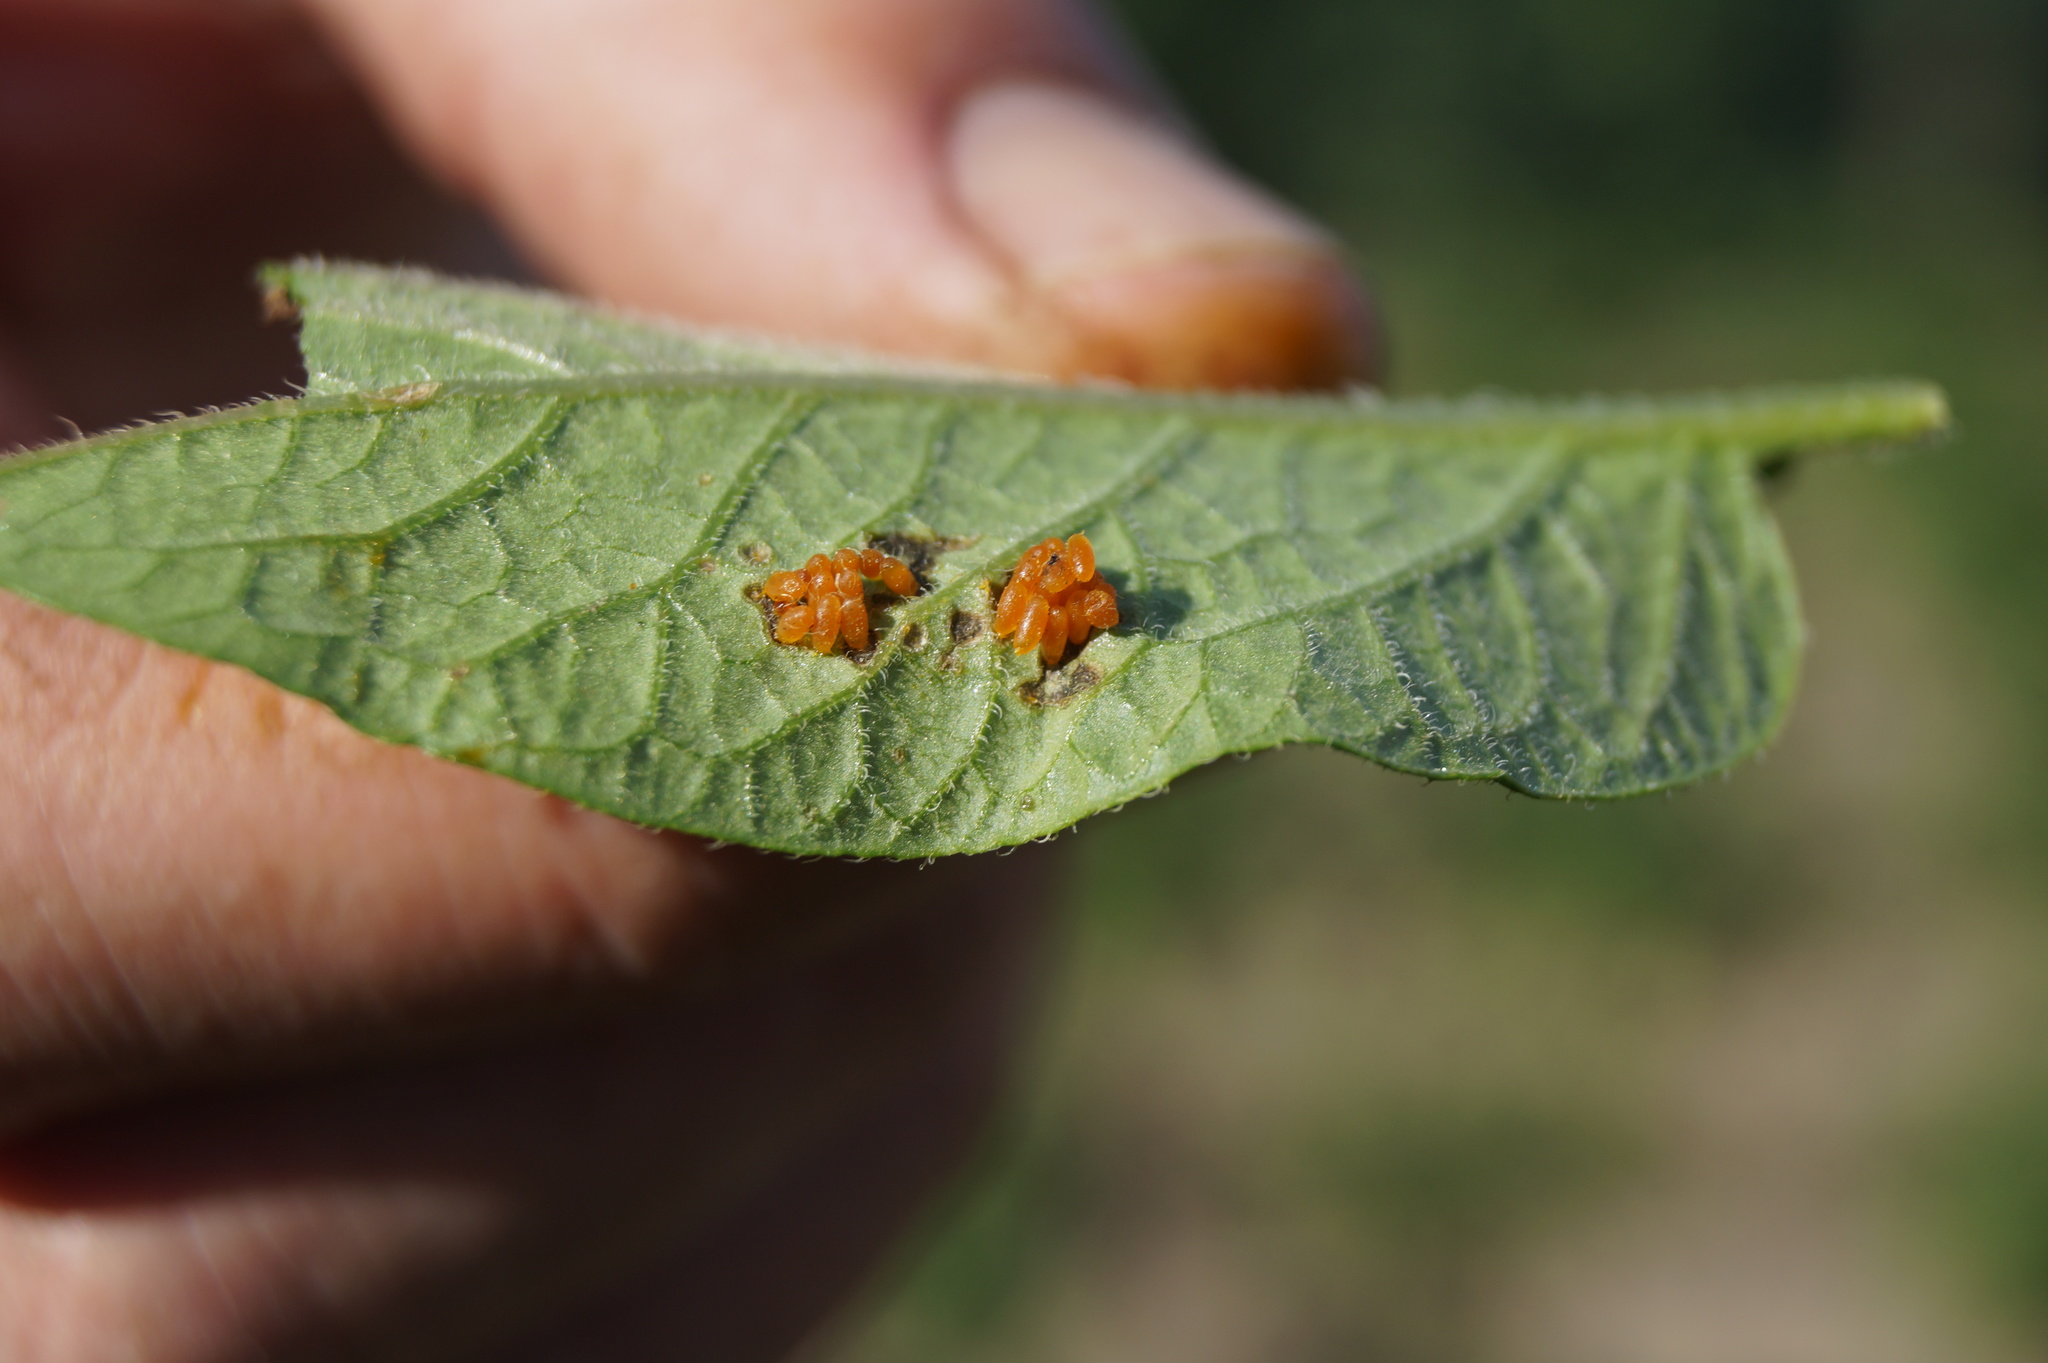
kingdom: Animalia
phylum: Arthropoda
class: Insecta
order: Coleoptera
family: Chrysomelidae
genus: Leptinotarsa
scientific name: Leptinotarsa decemlineata
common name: Colorado potato beetle
